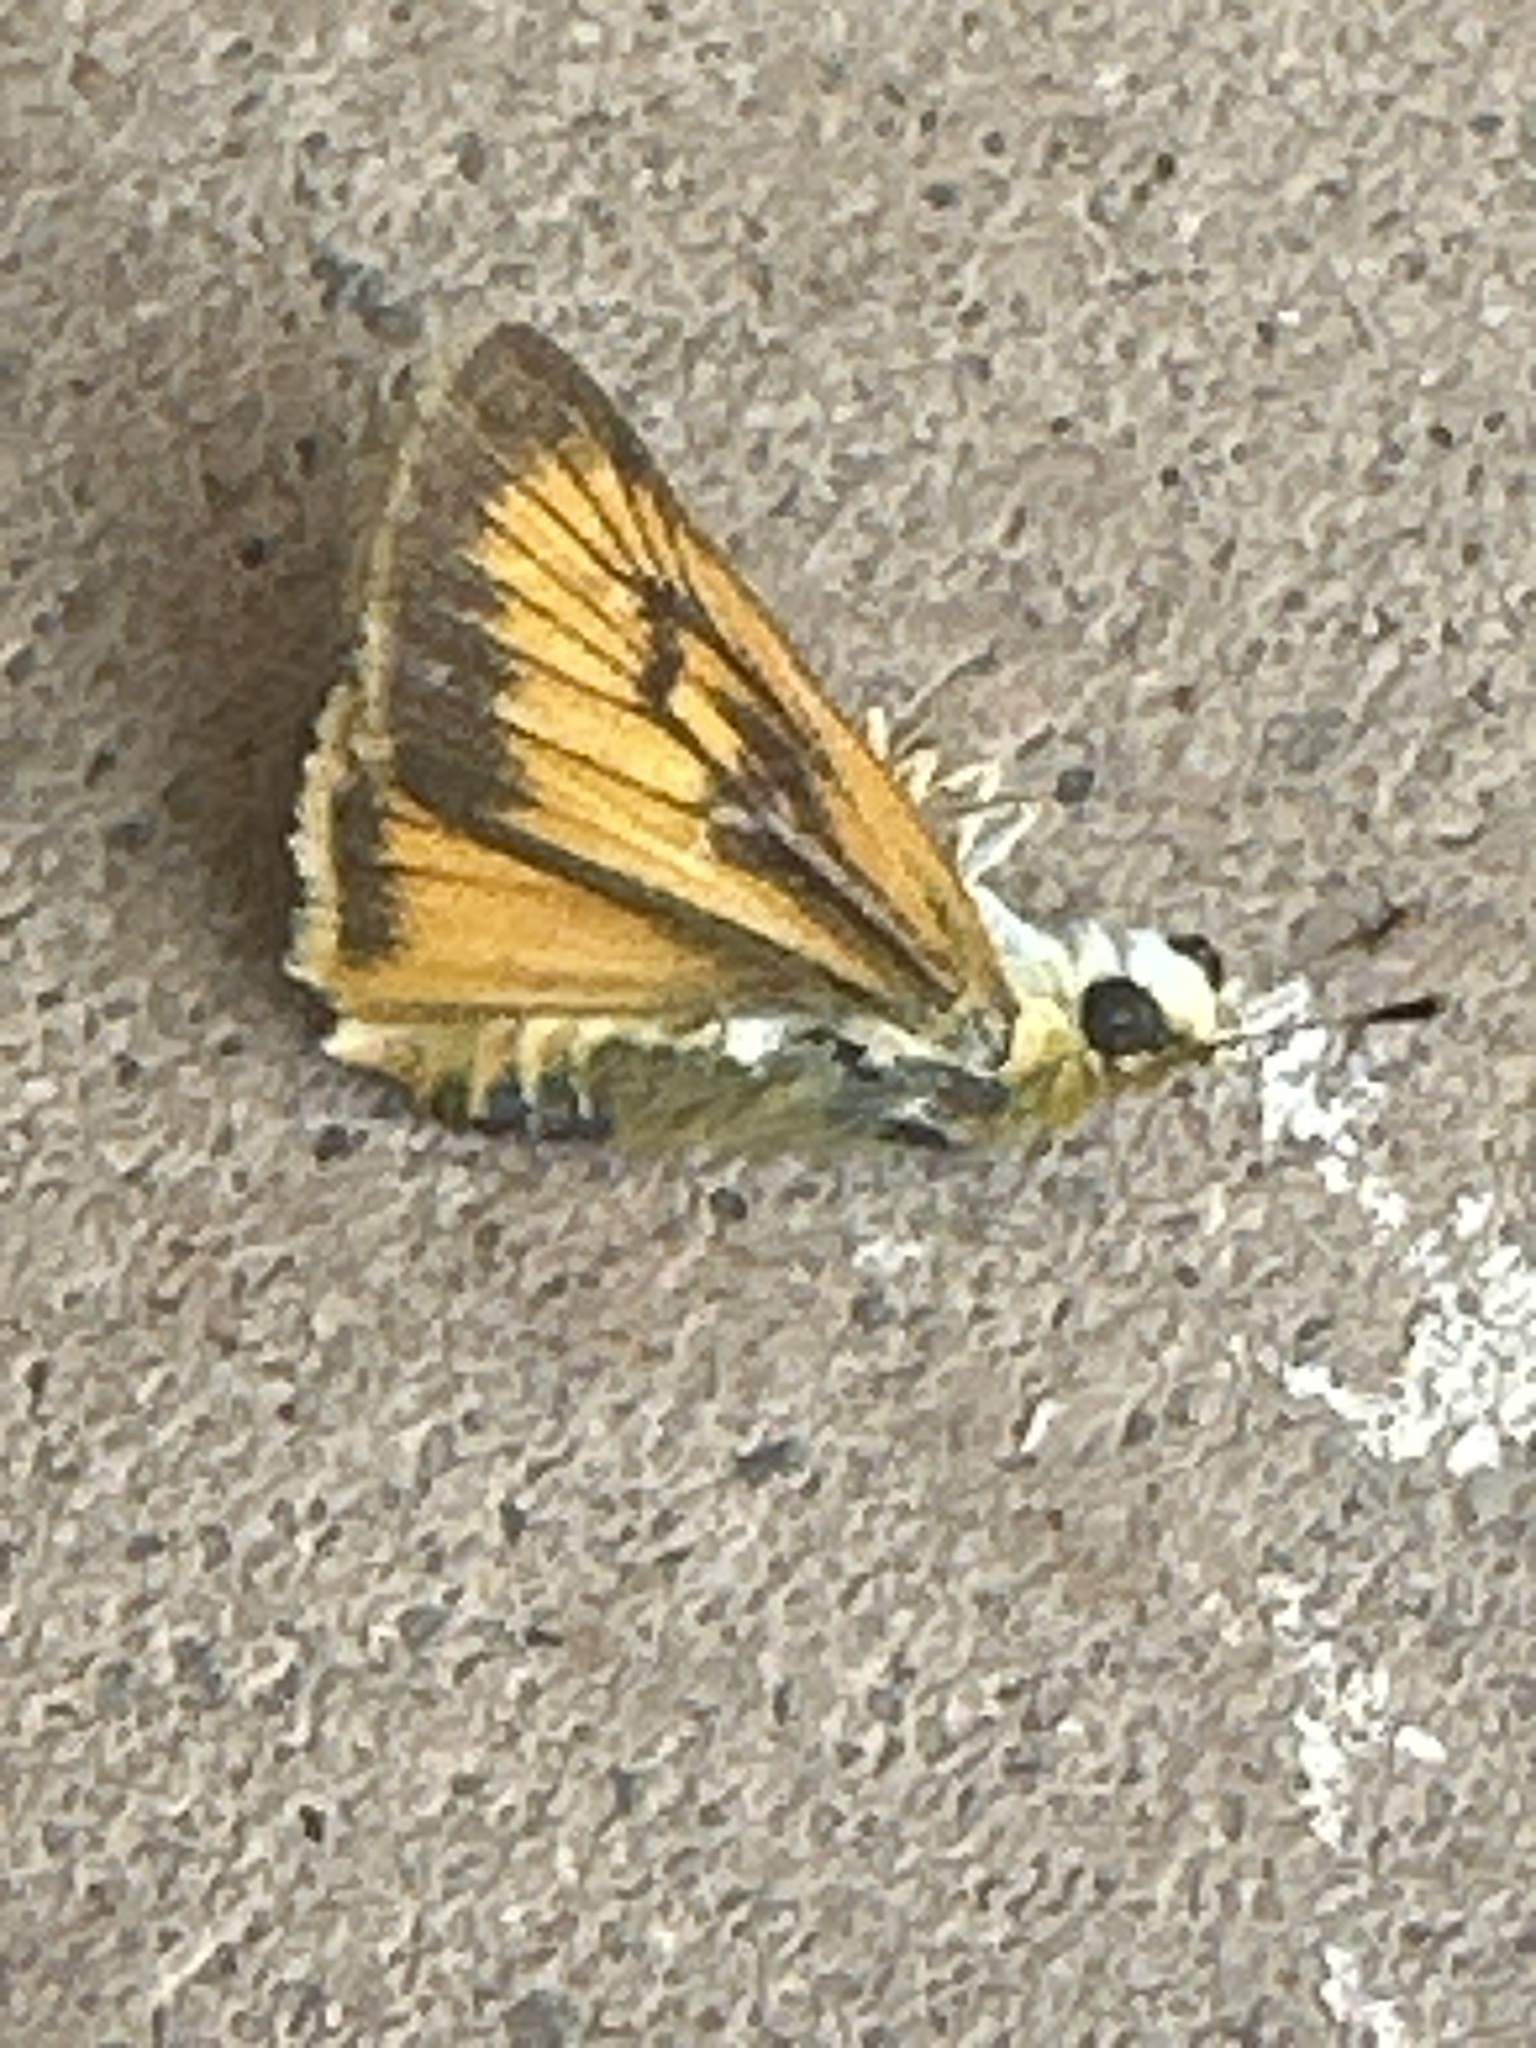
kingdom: Animalia
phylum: Arthropoda
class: Insecta
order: Lepidoptera
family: Hesperiidae
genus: Atrytone
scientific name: Atrytone delaware
